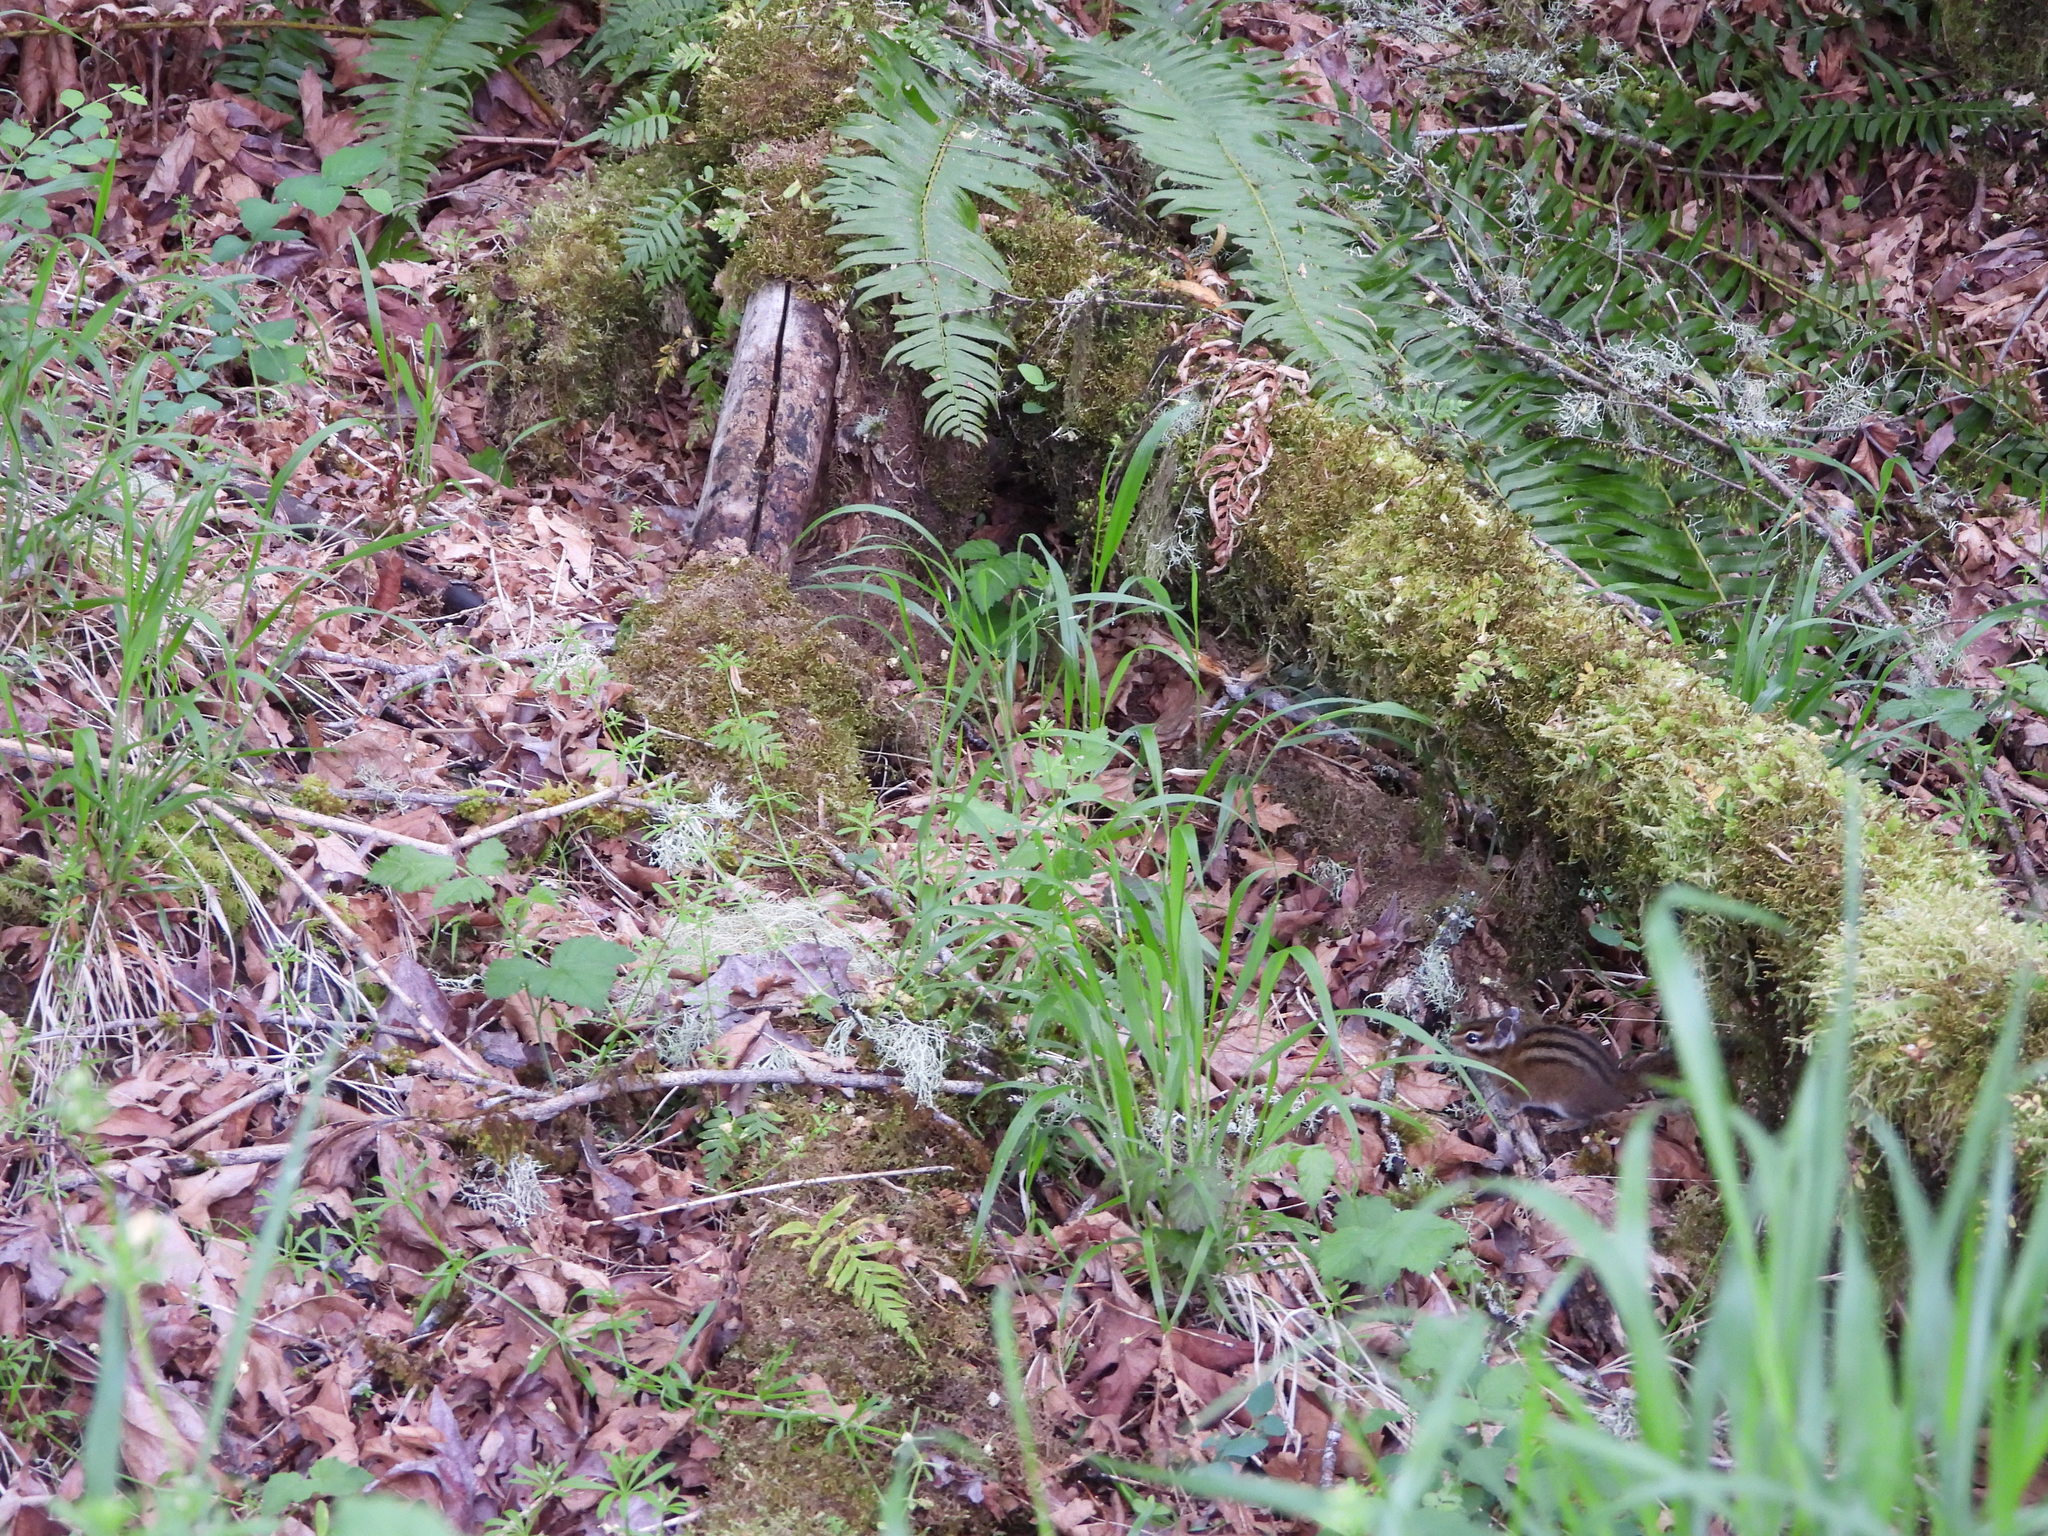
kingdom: Animalia
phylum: Chordata
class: Mammalia
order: Rodentia
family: Sciuridae
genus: Tamias
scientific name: Tamias townsendii
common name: Townsend's chipmunk
